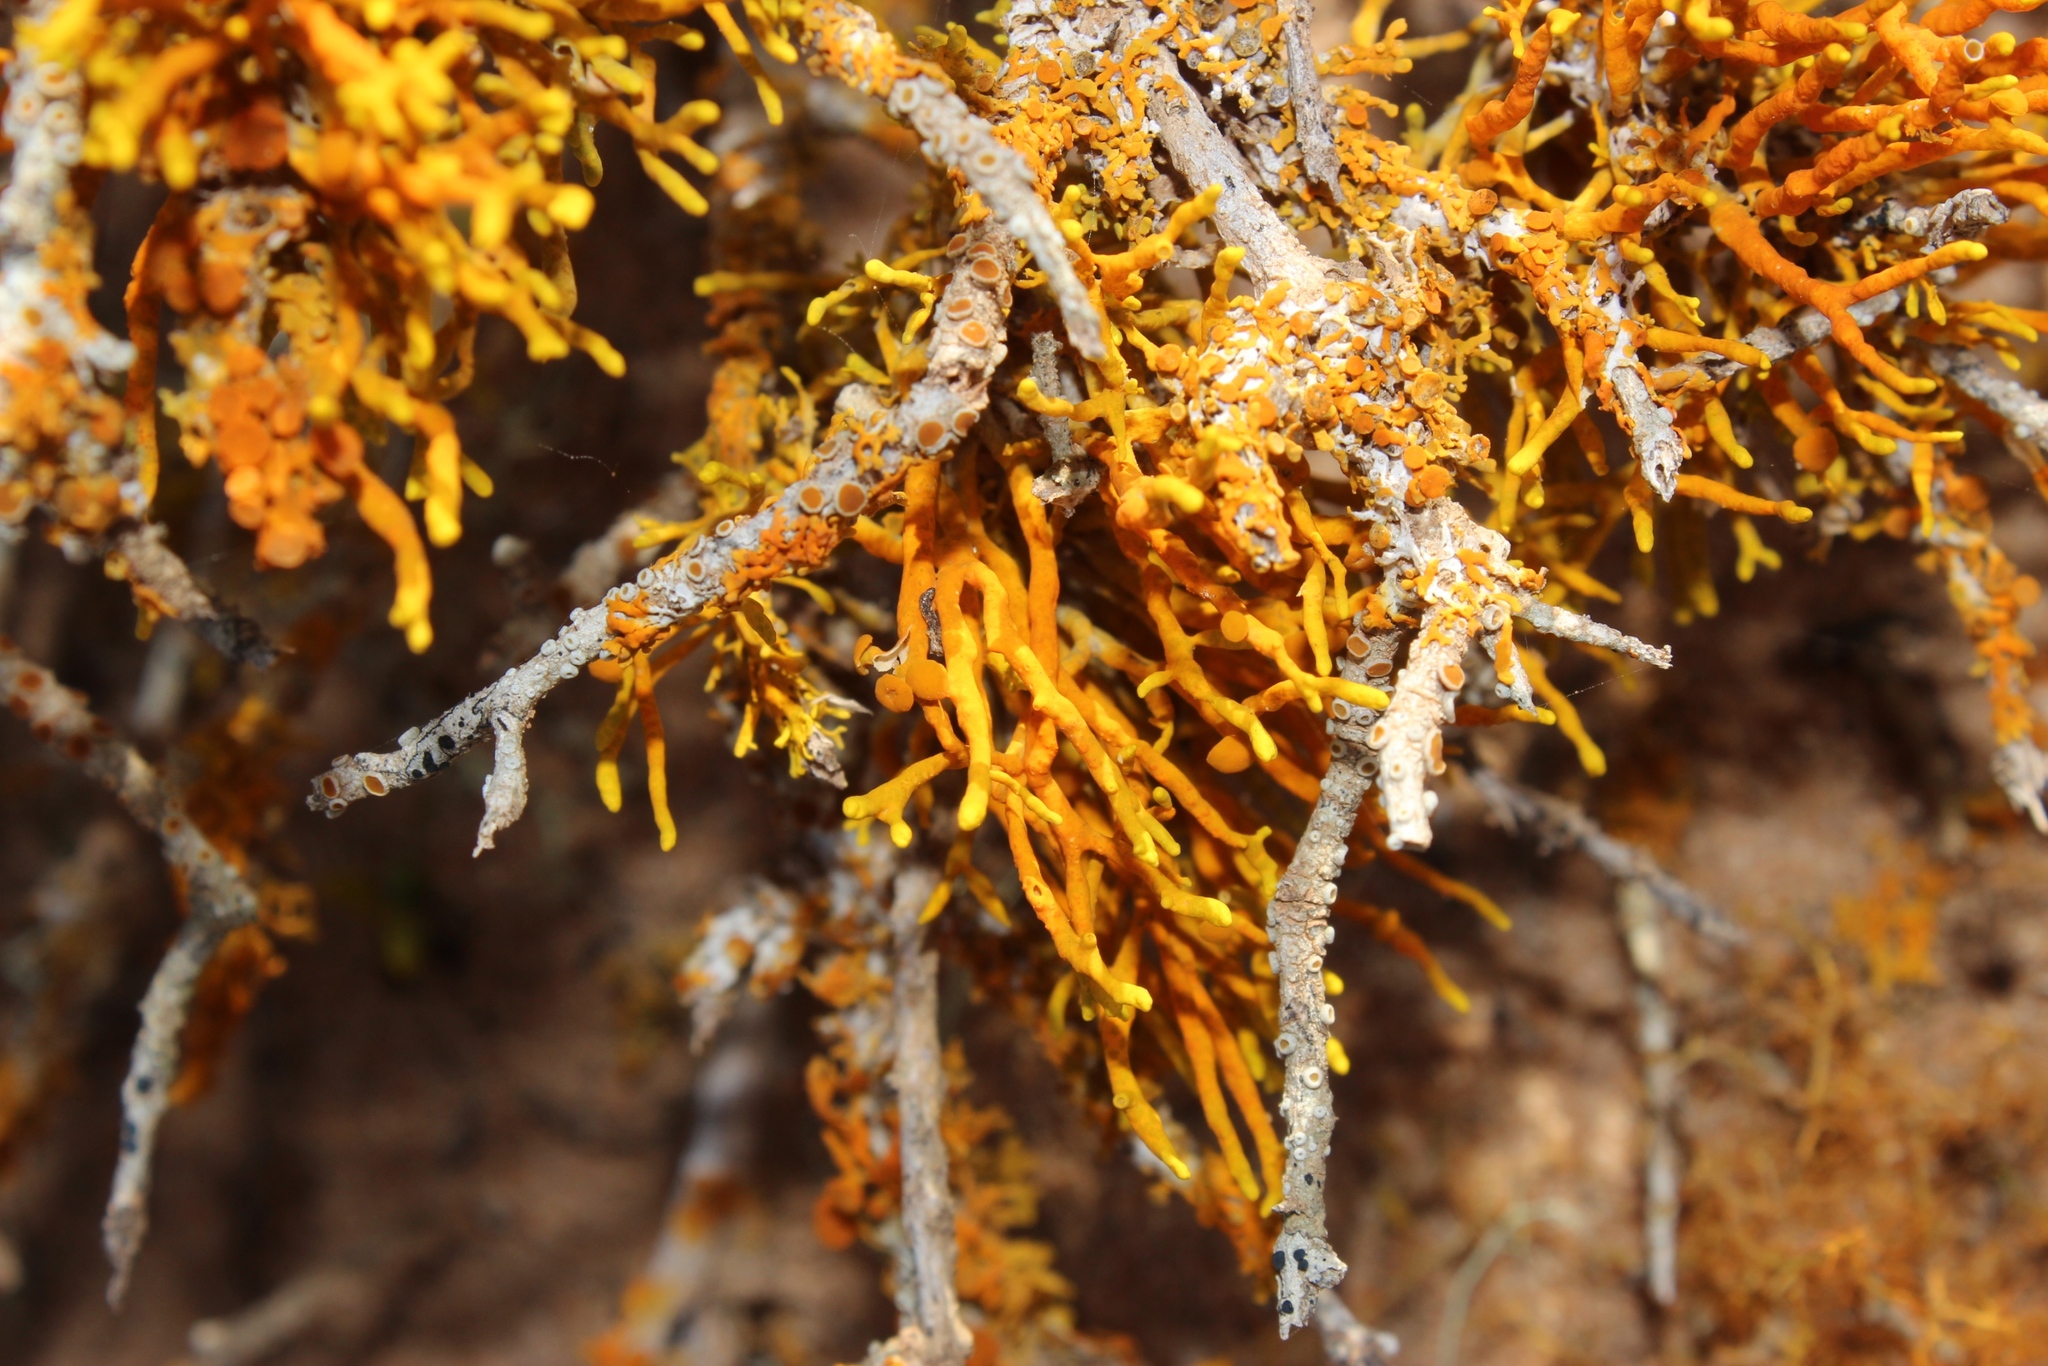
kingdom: Fungi
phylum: Ascomycota
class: Lecanoromycetes
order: Teloschistales
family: Teloschistaceae
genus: Dufourea
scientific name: Dufourea flammea
